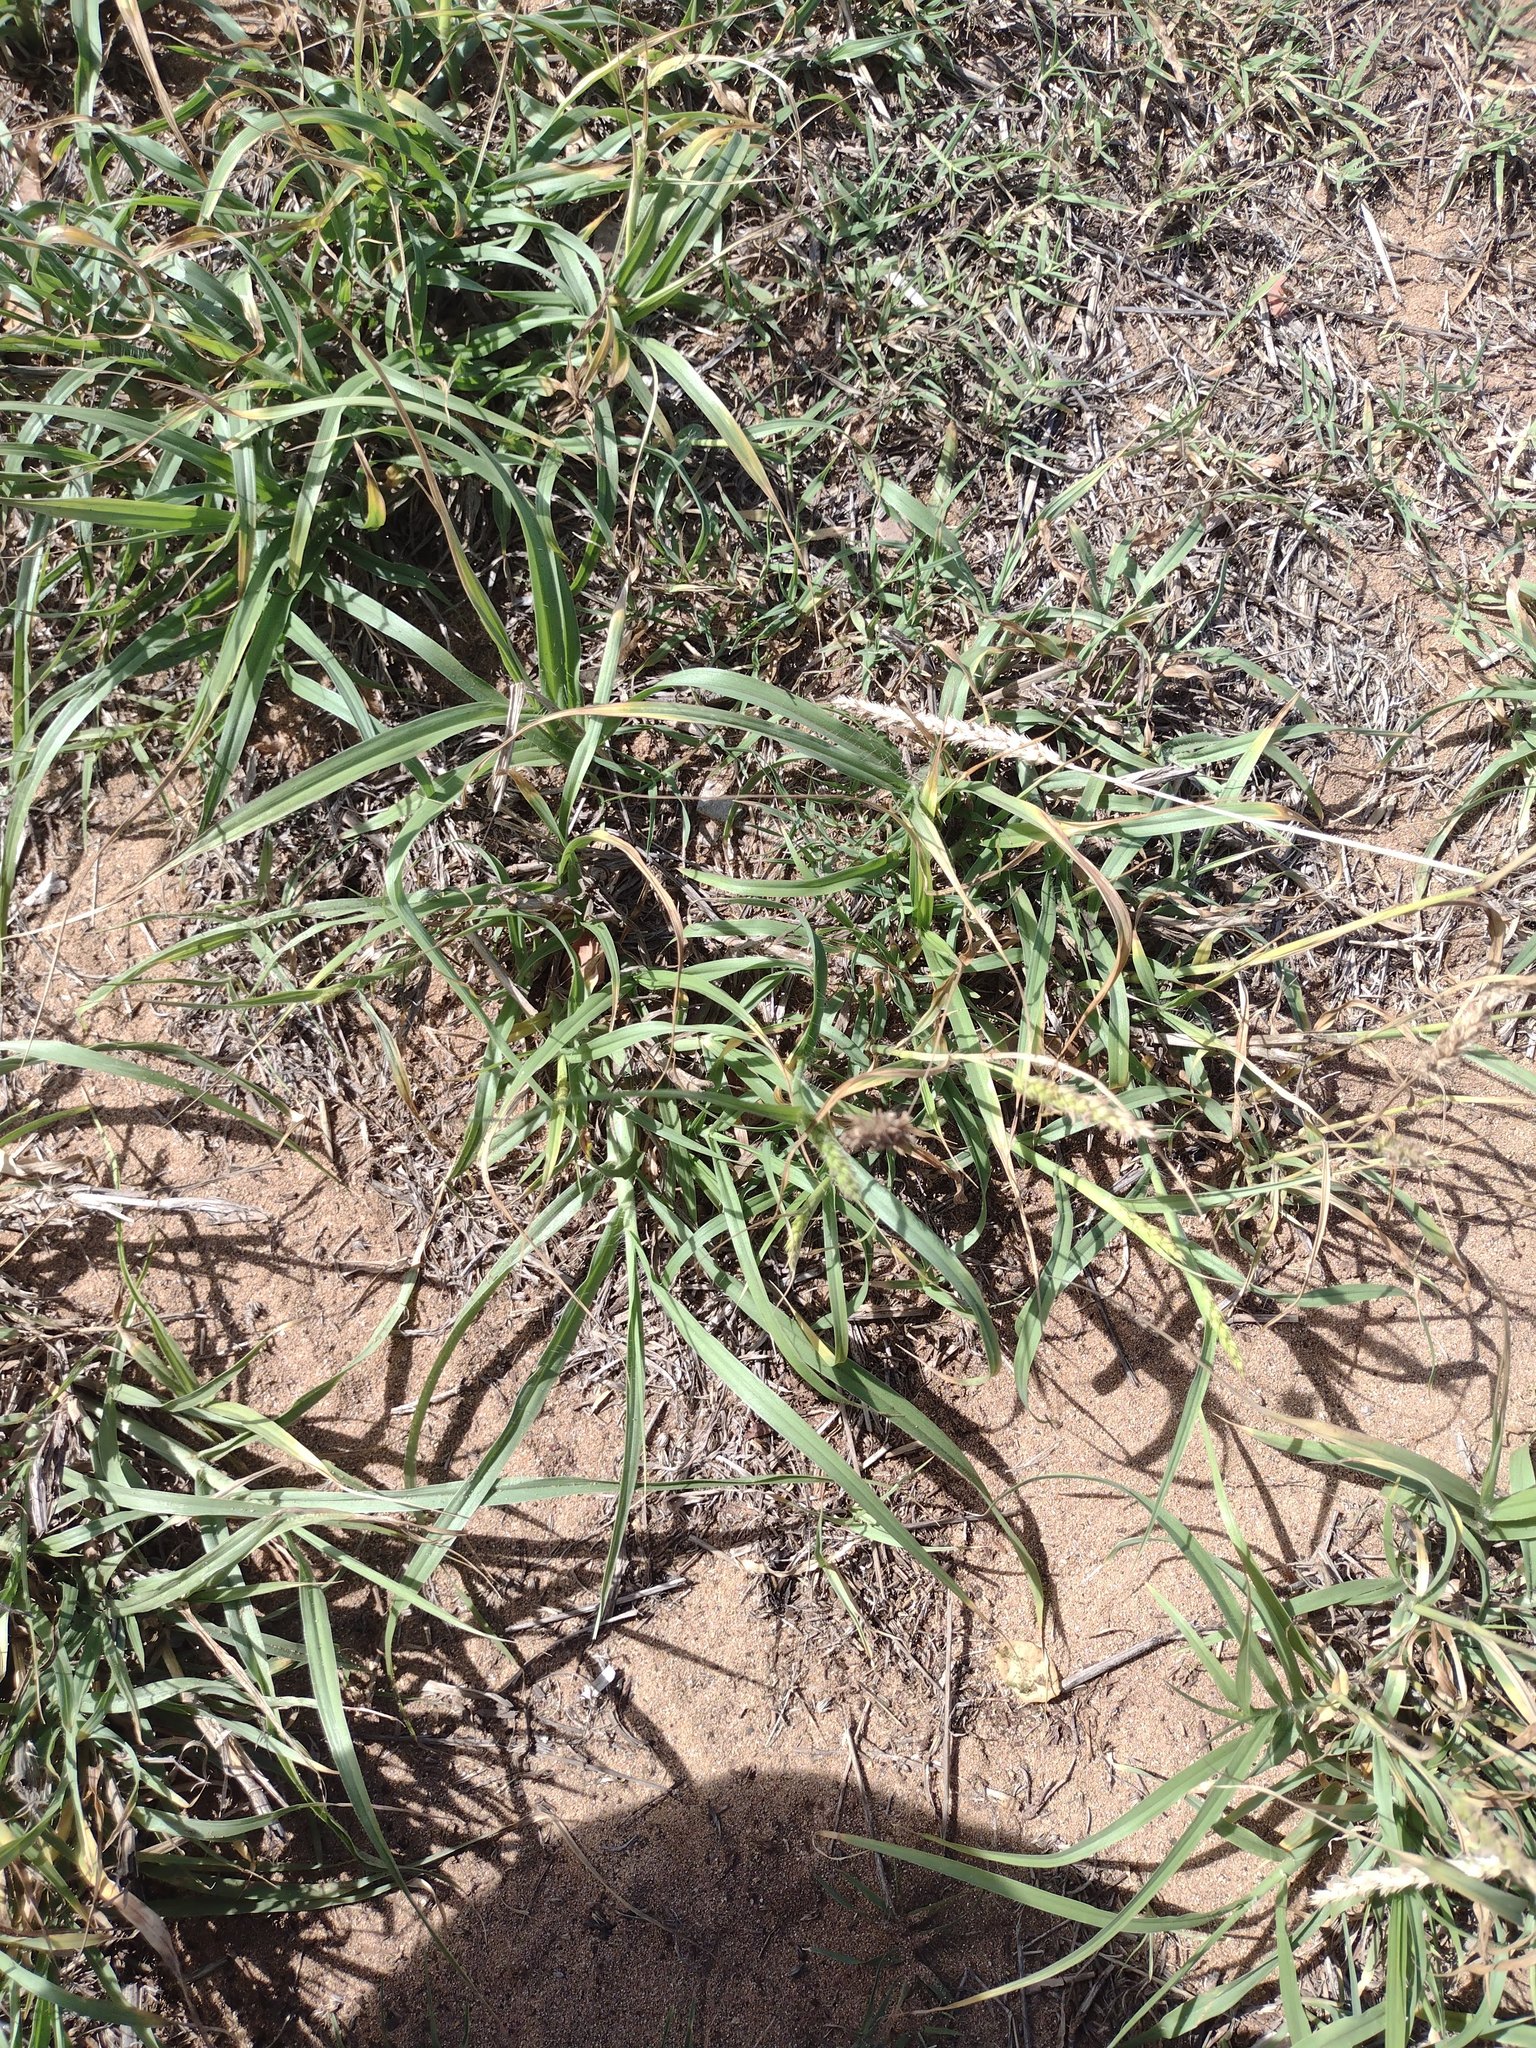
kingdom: Plantae
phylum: Tracheophyta
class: Liliopsida
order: Poales
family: Poaceae
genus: Cenchrus
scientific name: Cenchrus setigerus
